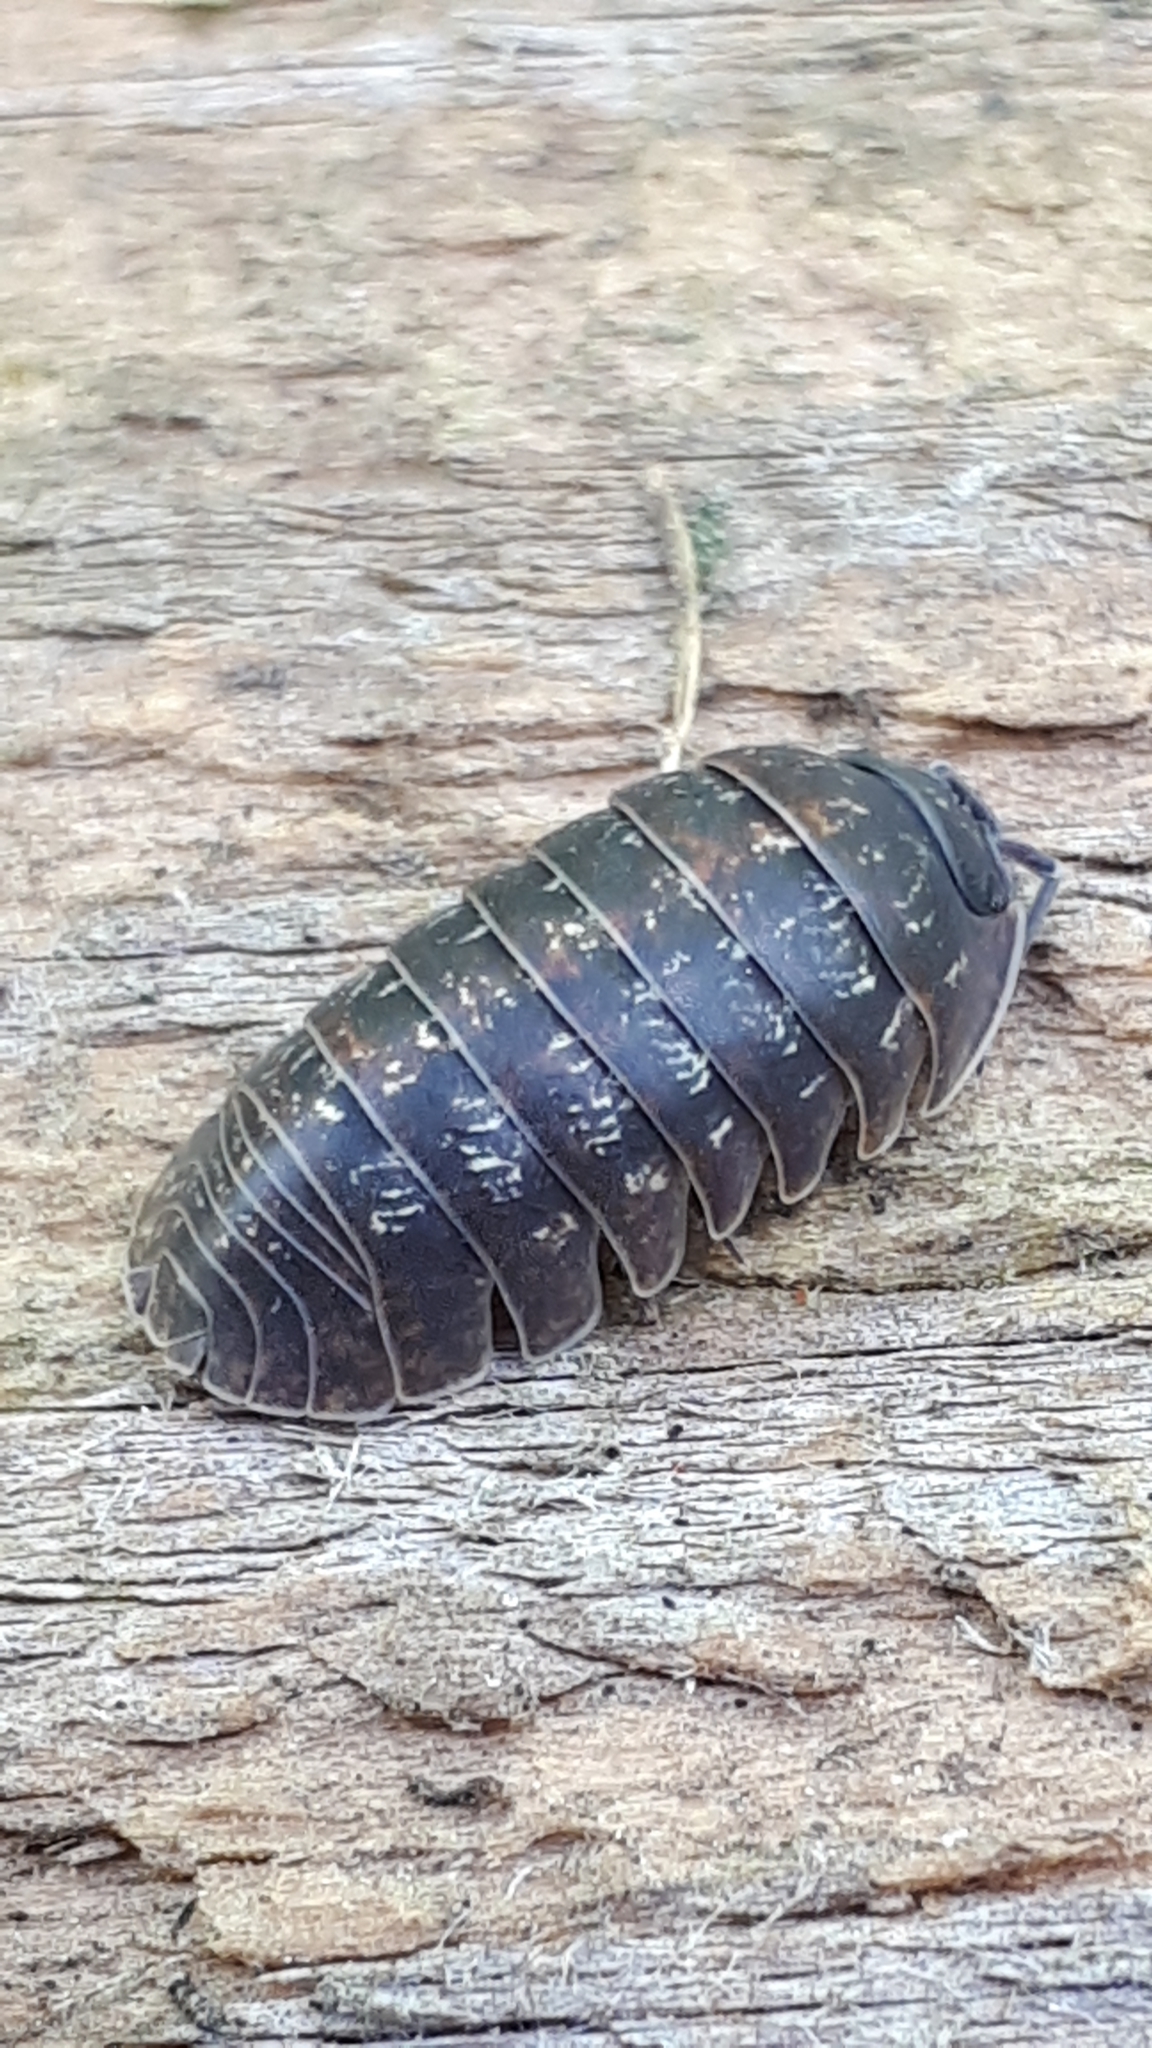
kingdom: Animalia
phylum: Arthropoda
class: Malacostraca
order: Isopoda
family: Armadillidiidae
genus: Armadillidium
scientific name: Armadillidium opacum
